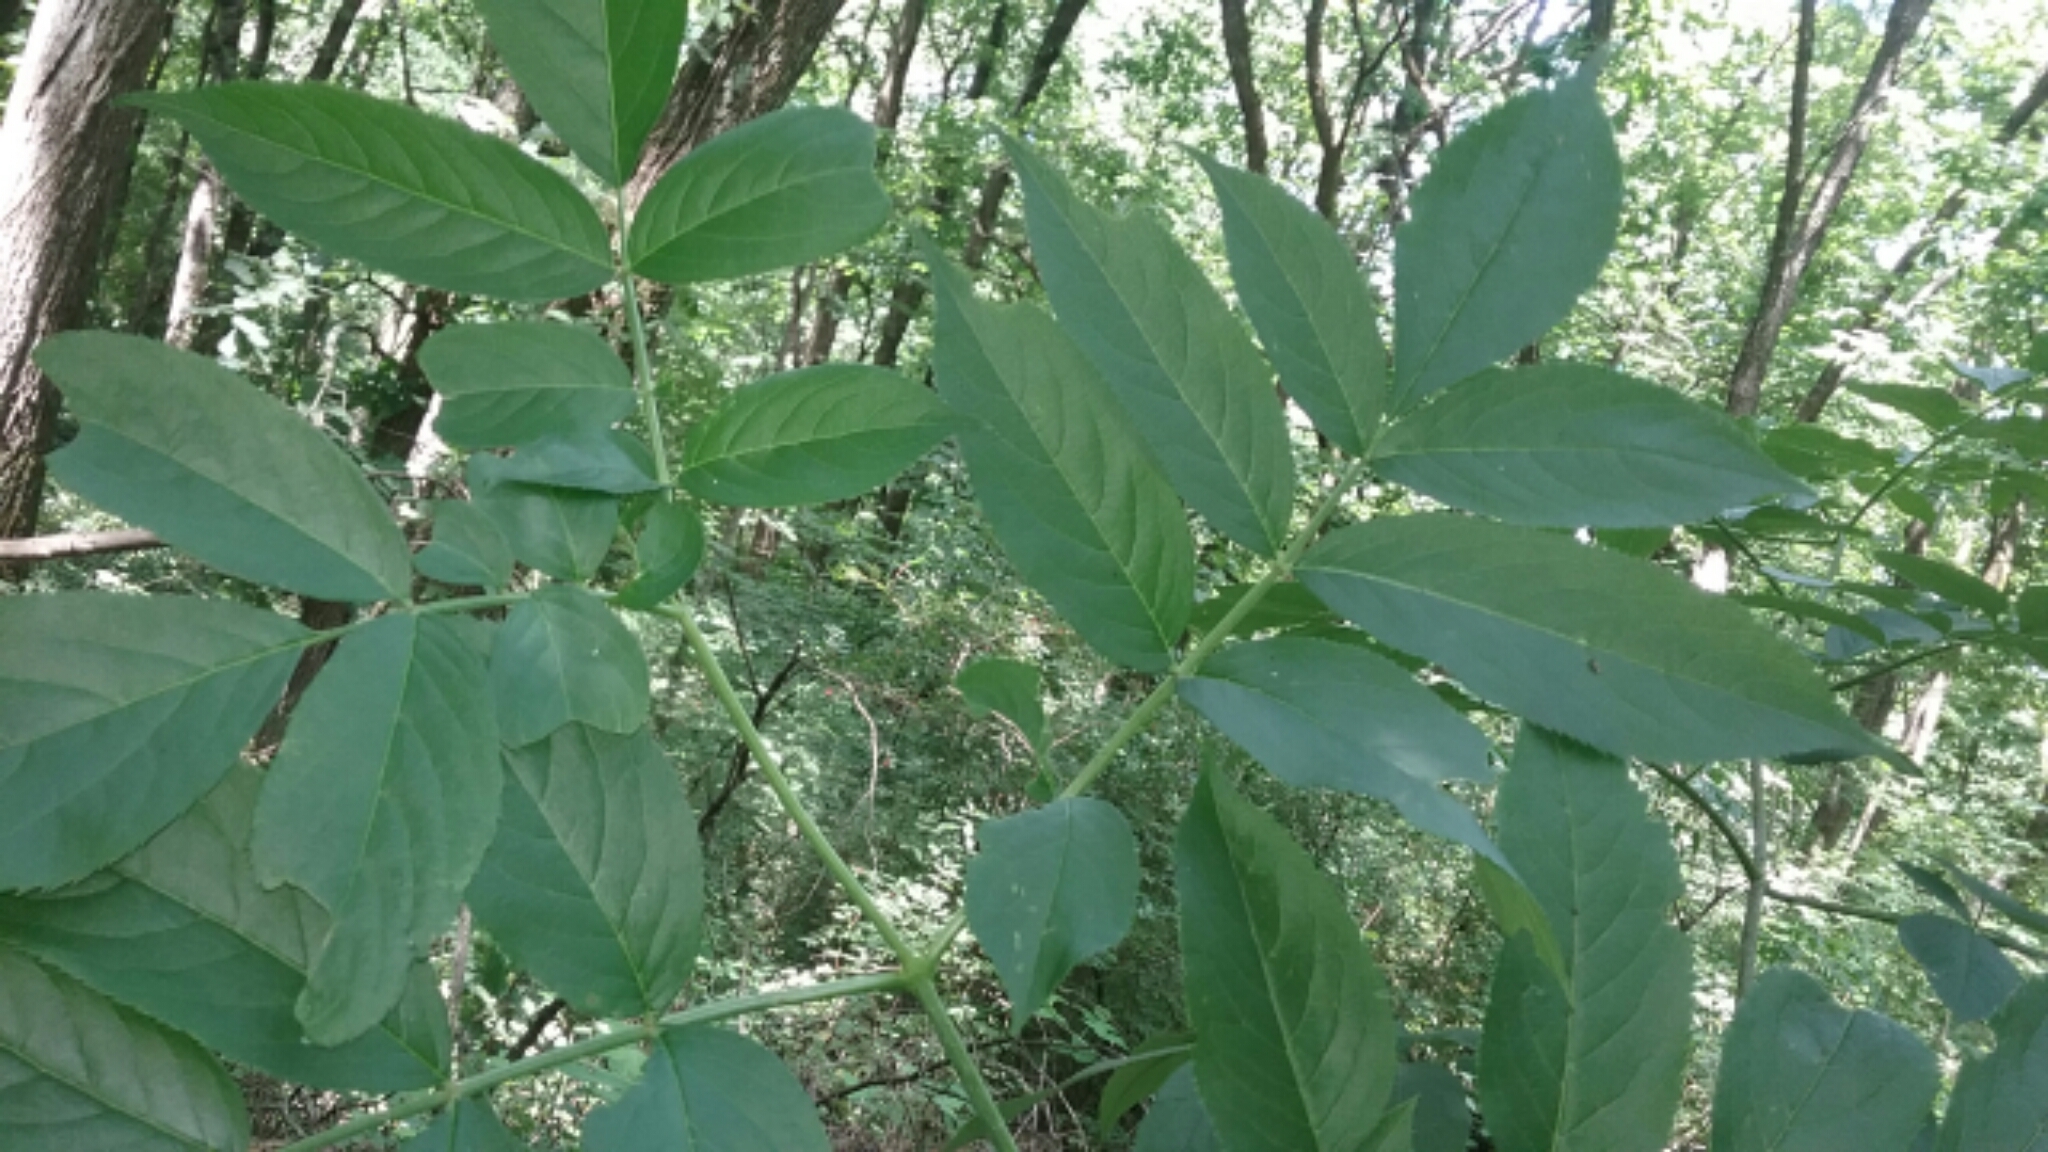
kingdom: Plantae
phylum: Tracheophyta
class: Magnoliopsida
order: Dipsacales
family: Viburnaceae
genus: Sambucus
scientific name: Sambucus canadensis
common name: American elder
